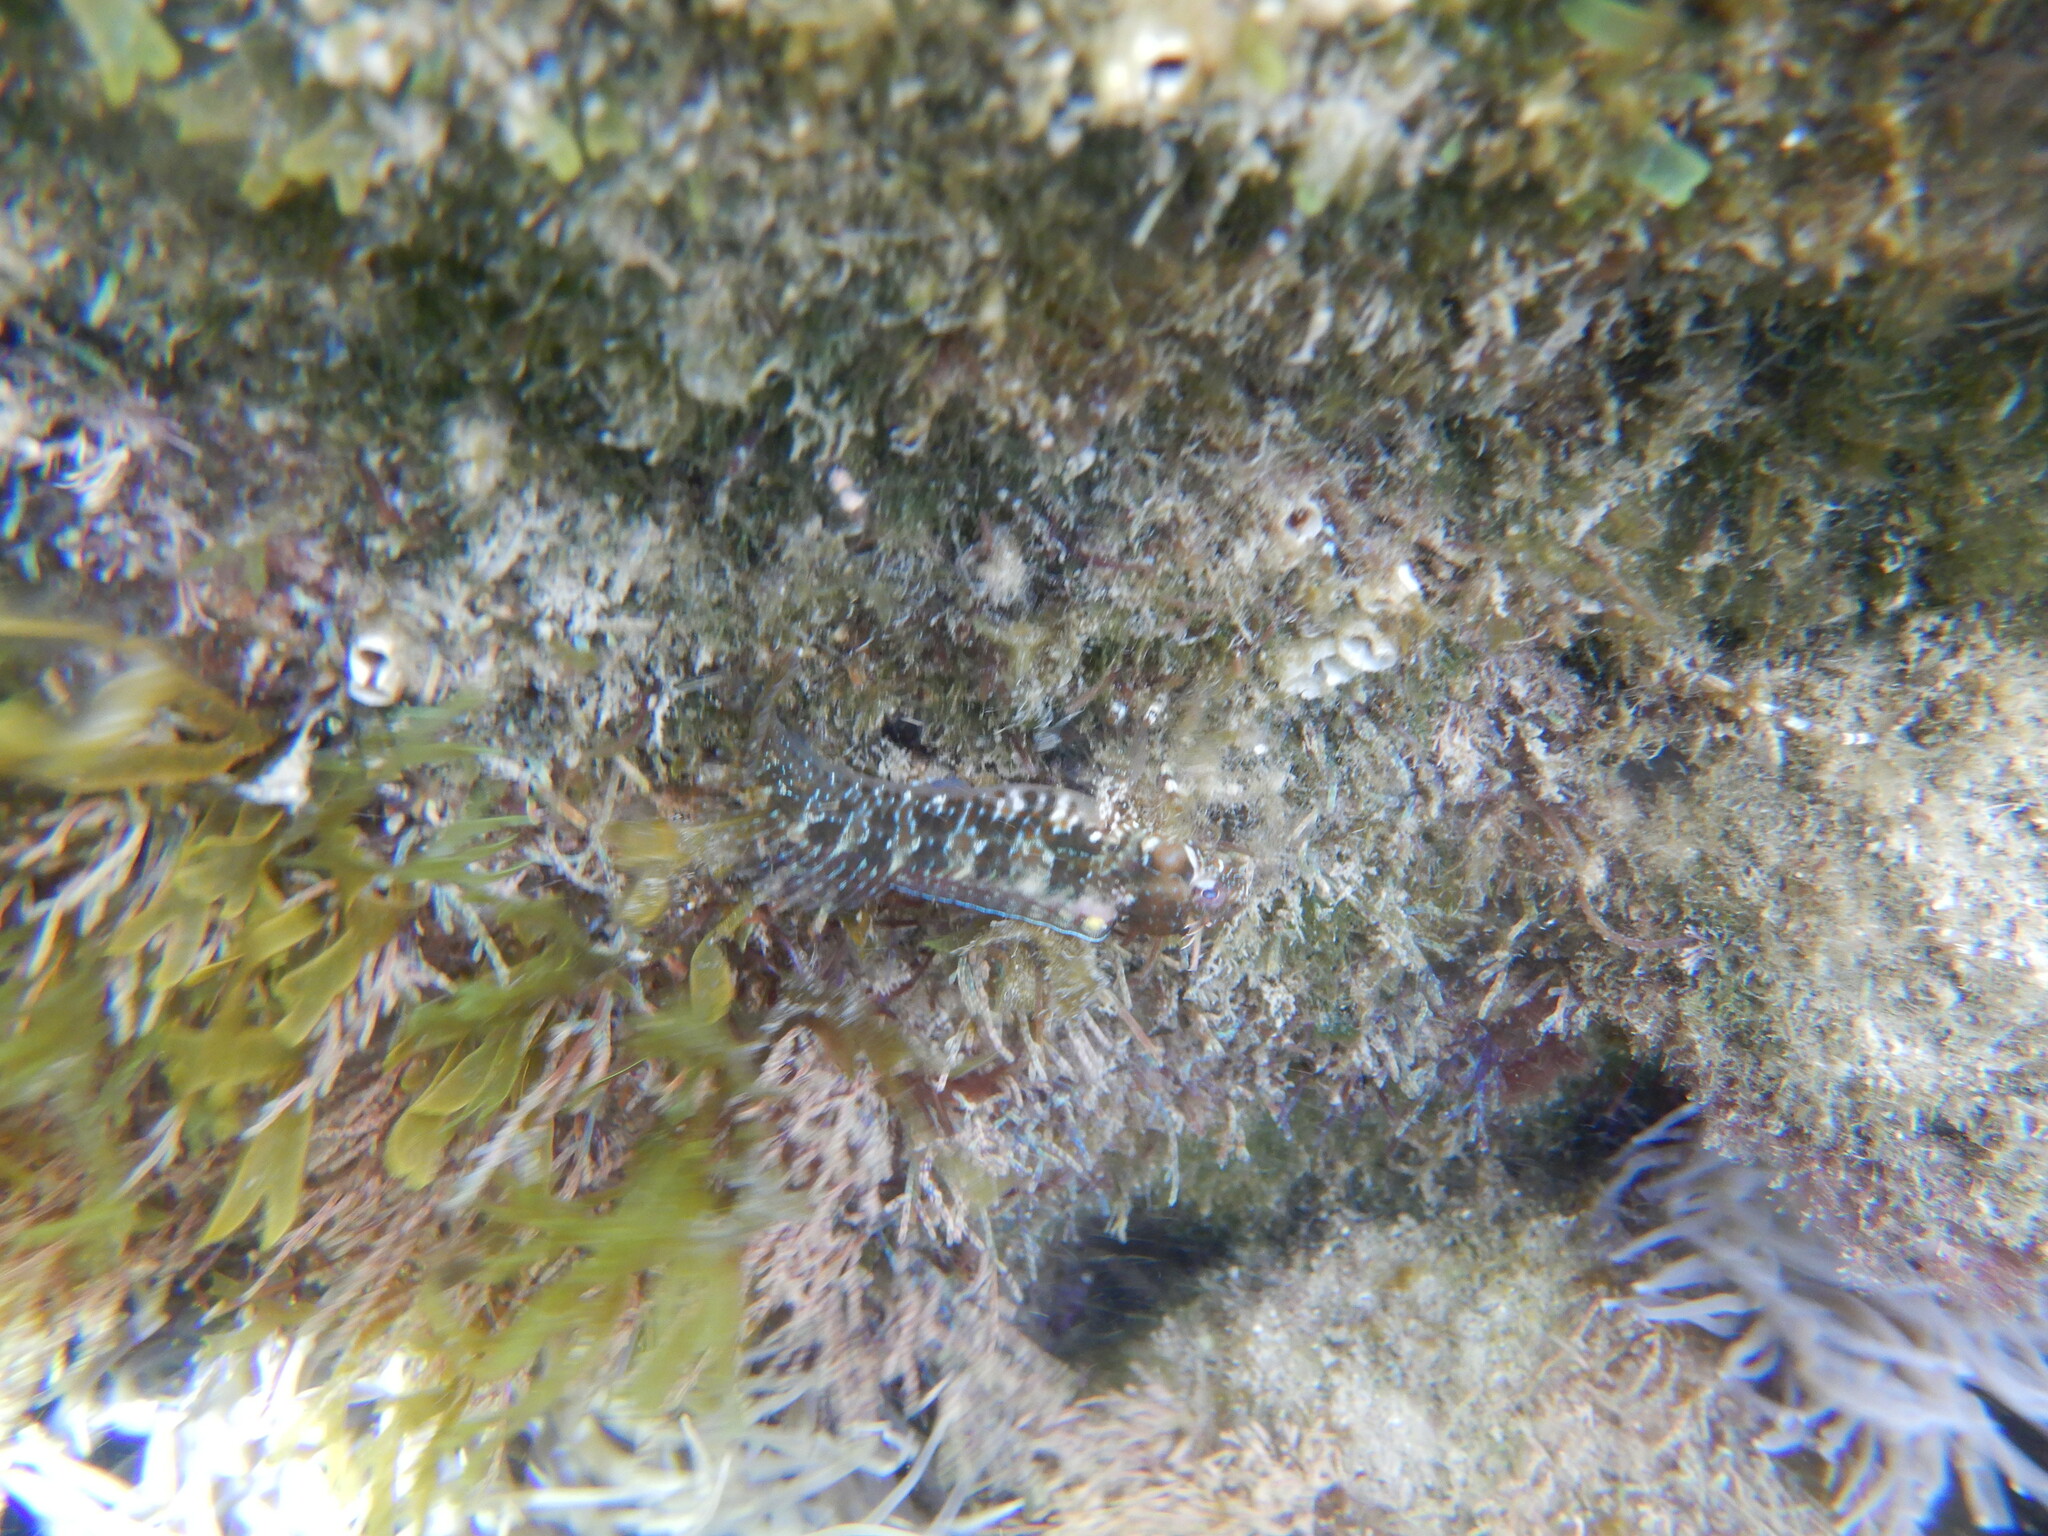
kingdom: Animalia
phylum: Chordata
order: Perciformes
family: Blenniidae
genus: Parablennius
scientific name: Parablennius incognitus
